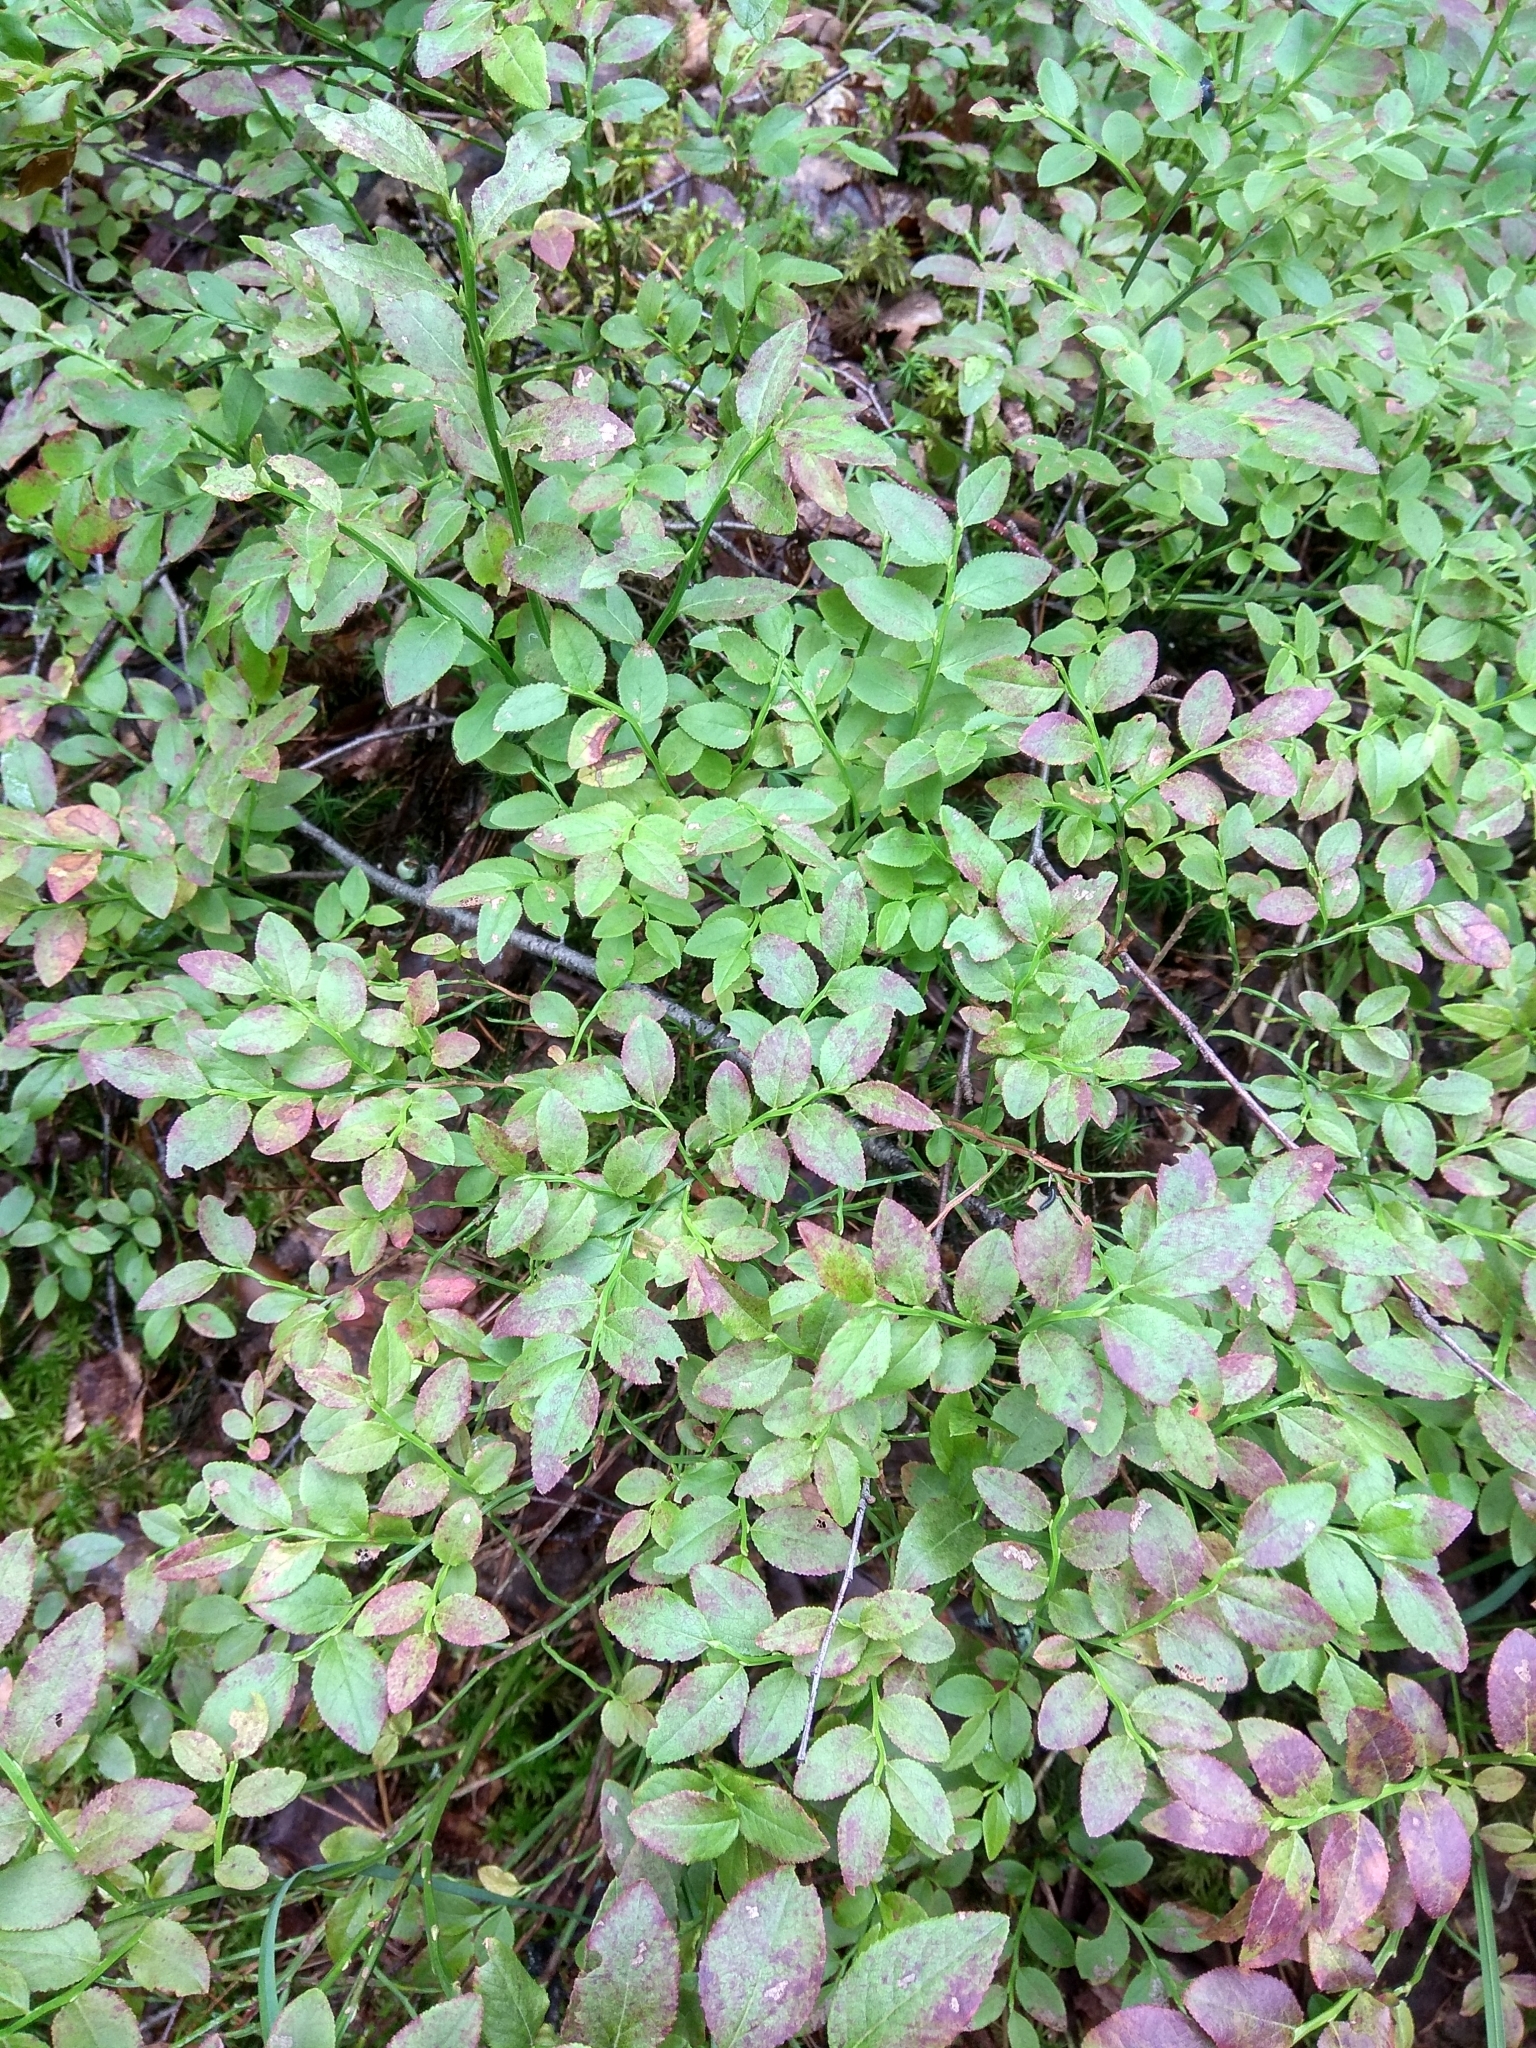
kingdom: Plantae
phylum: Tracheophyta
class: Magnoliopsida
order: Ericales
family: Ericaceae
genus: Vaccinium
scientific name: Vaccinium myrtillus
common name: Bilberry
